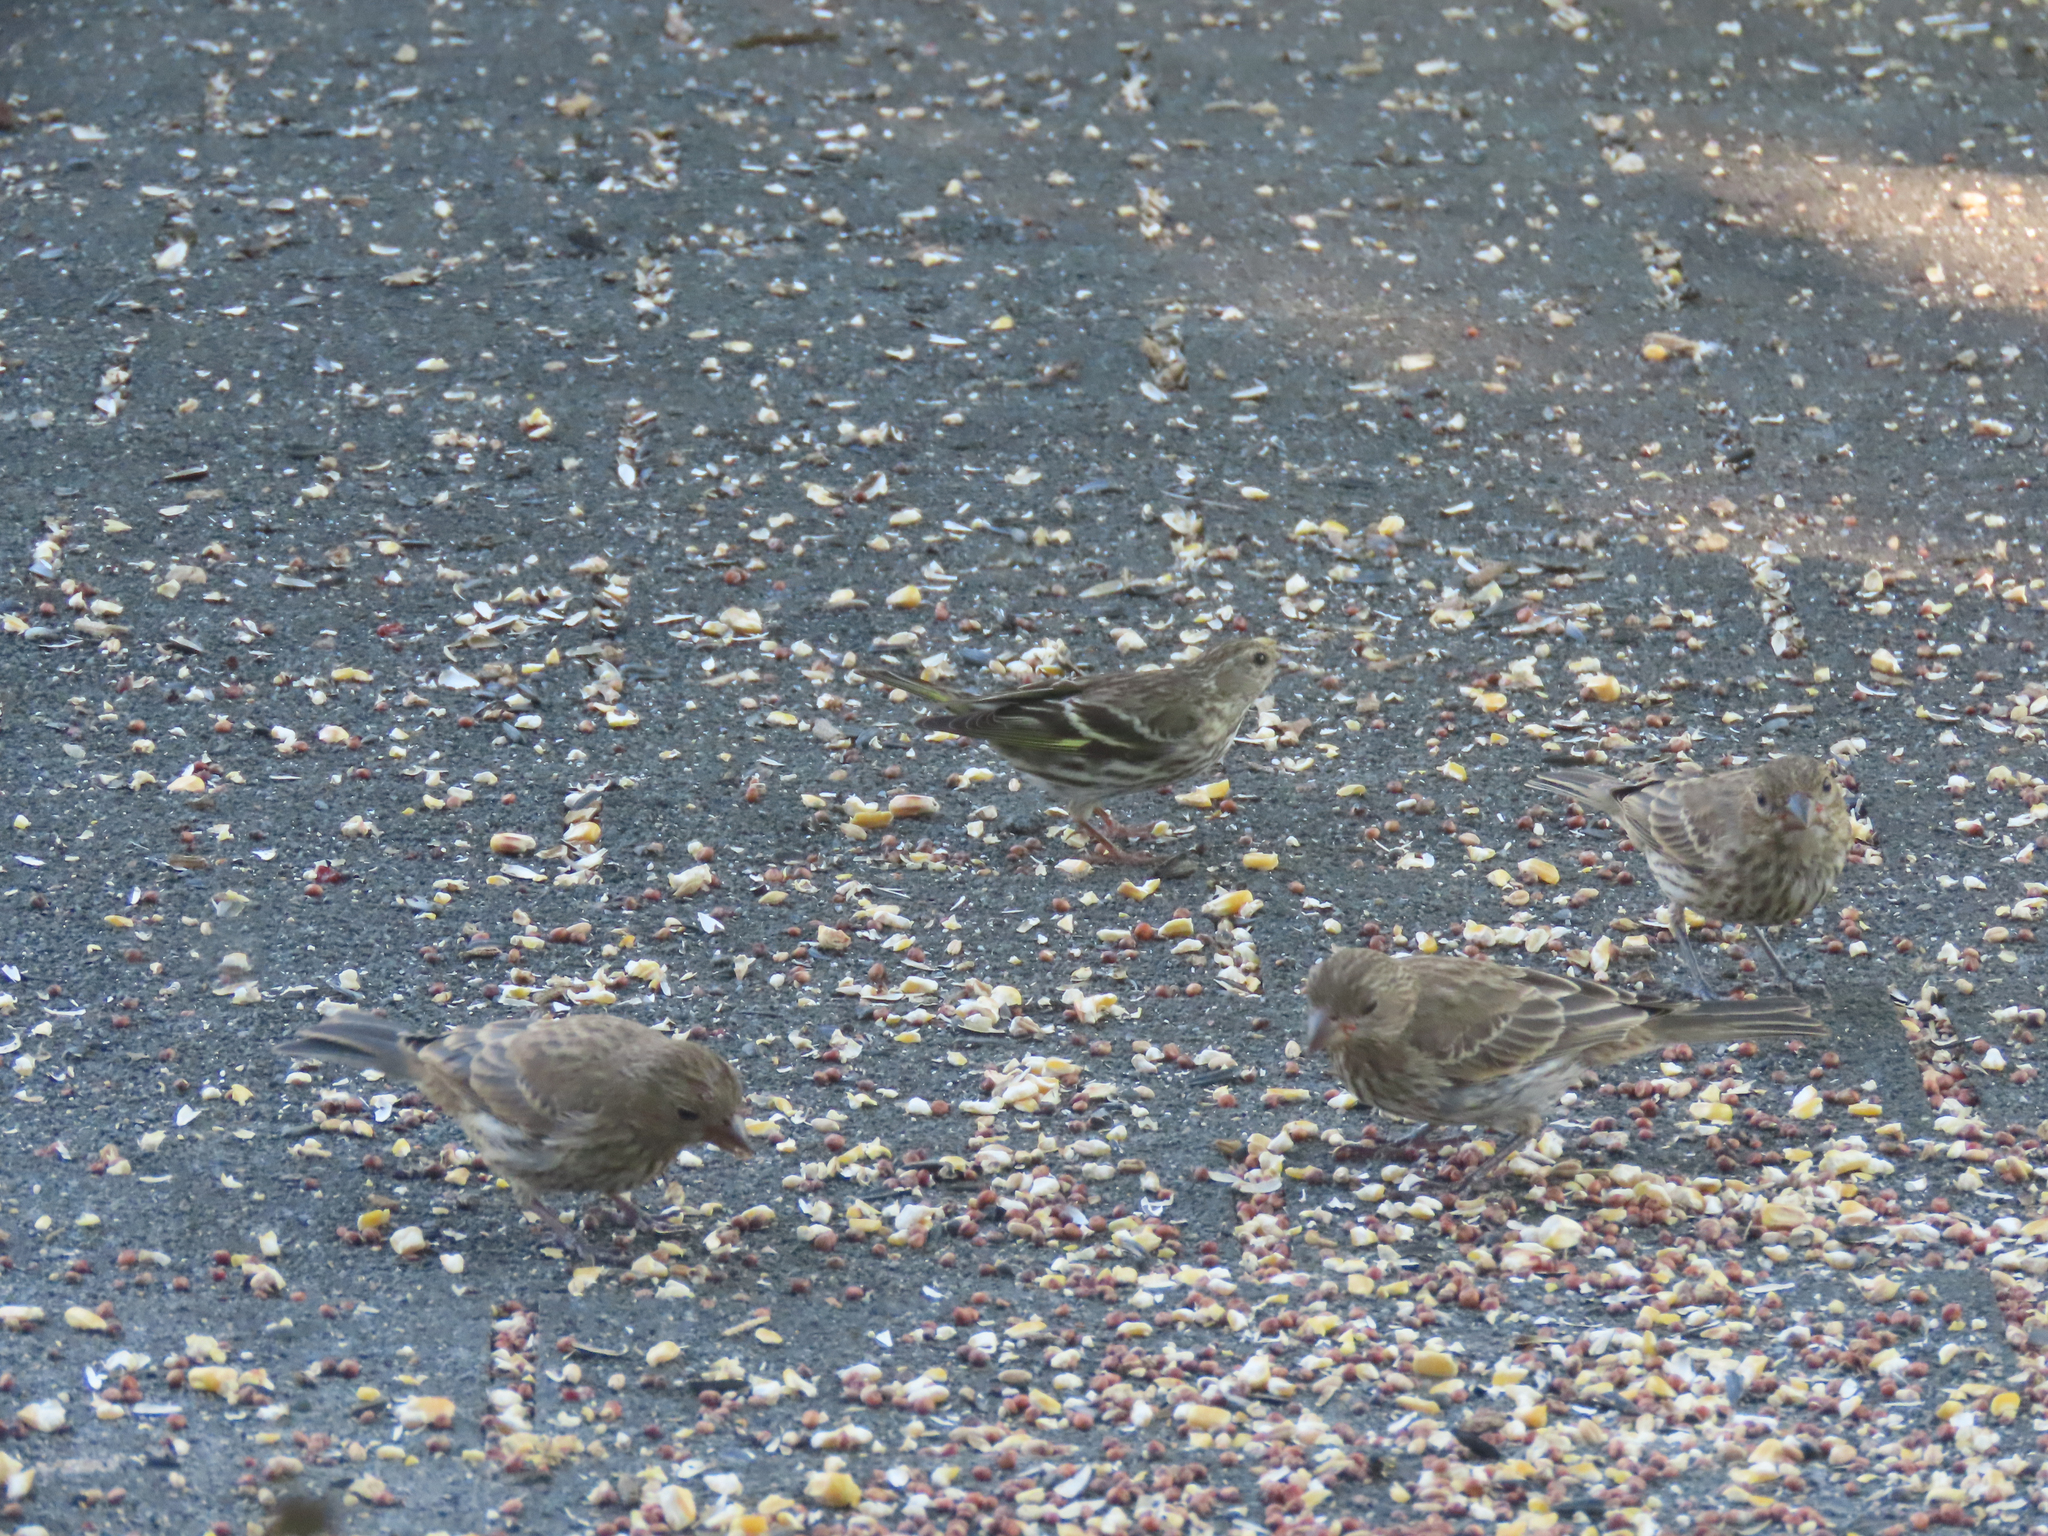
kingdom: Animalia
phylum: Chordata
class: Aves
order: Passeriformes
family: Fringillidae
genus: Spinus
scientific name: Spinus pinus
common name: Pine siskin
